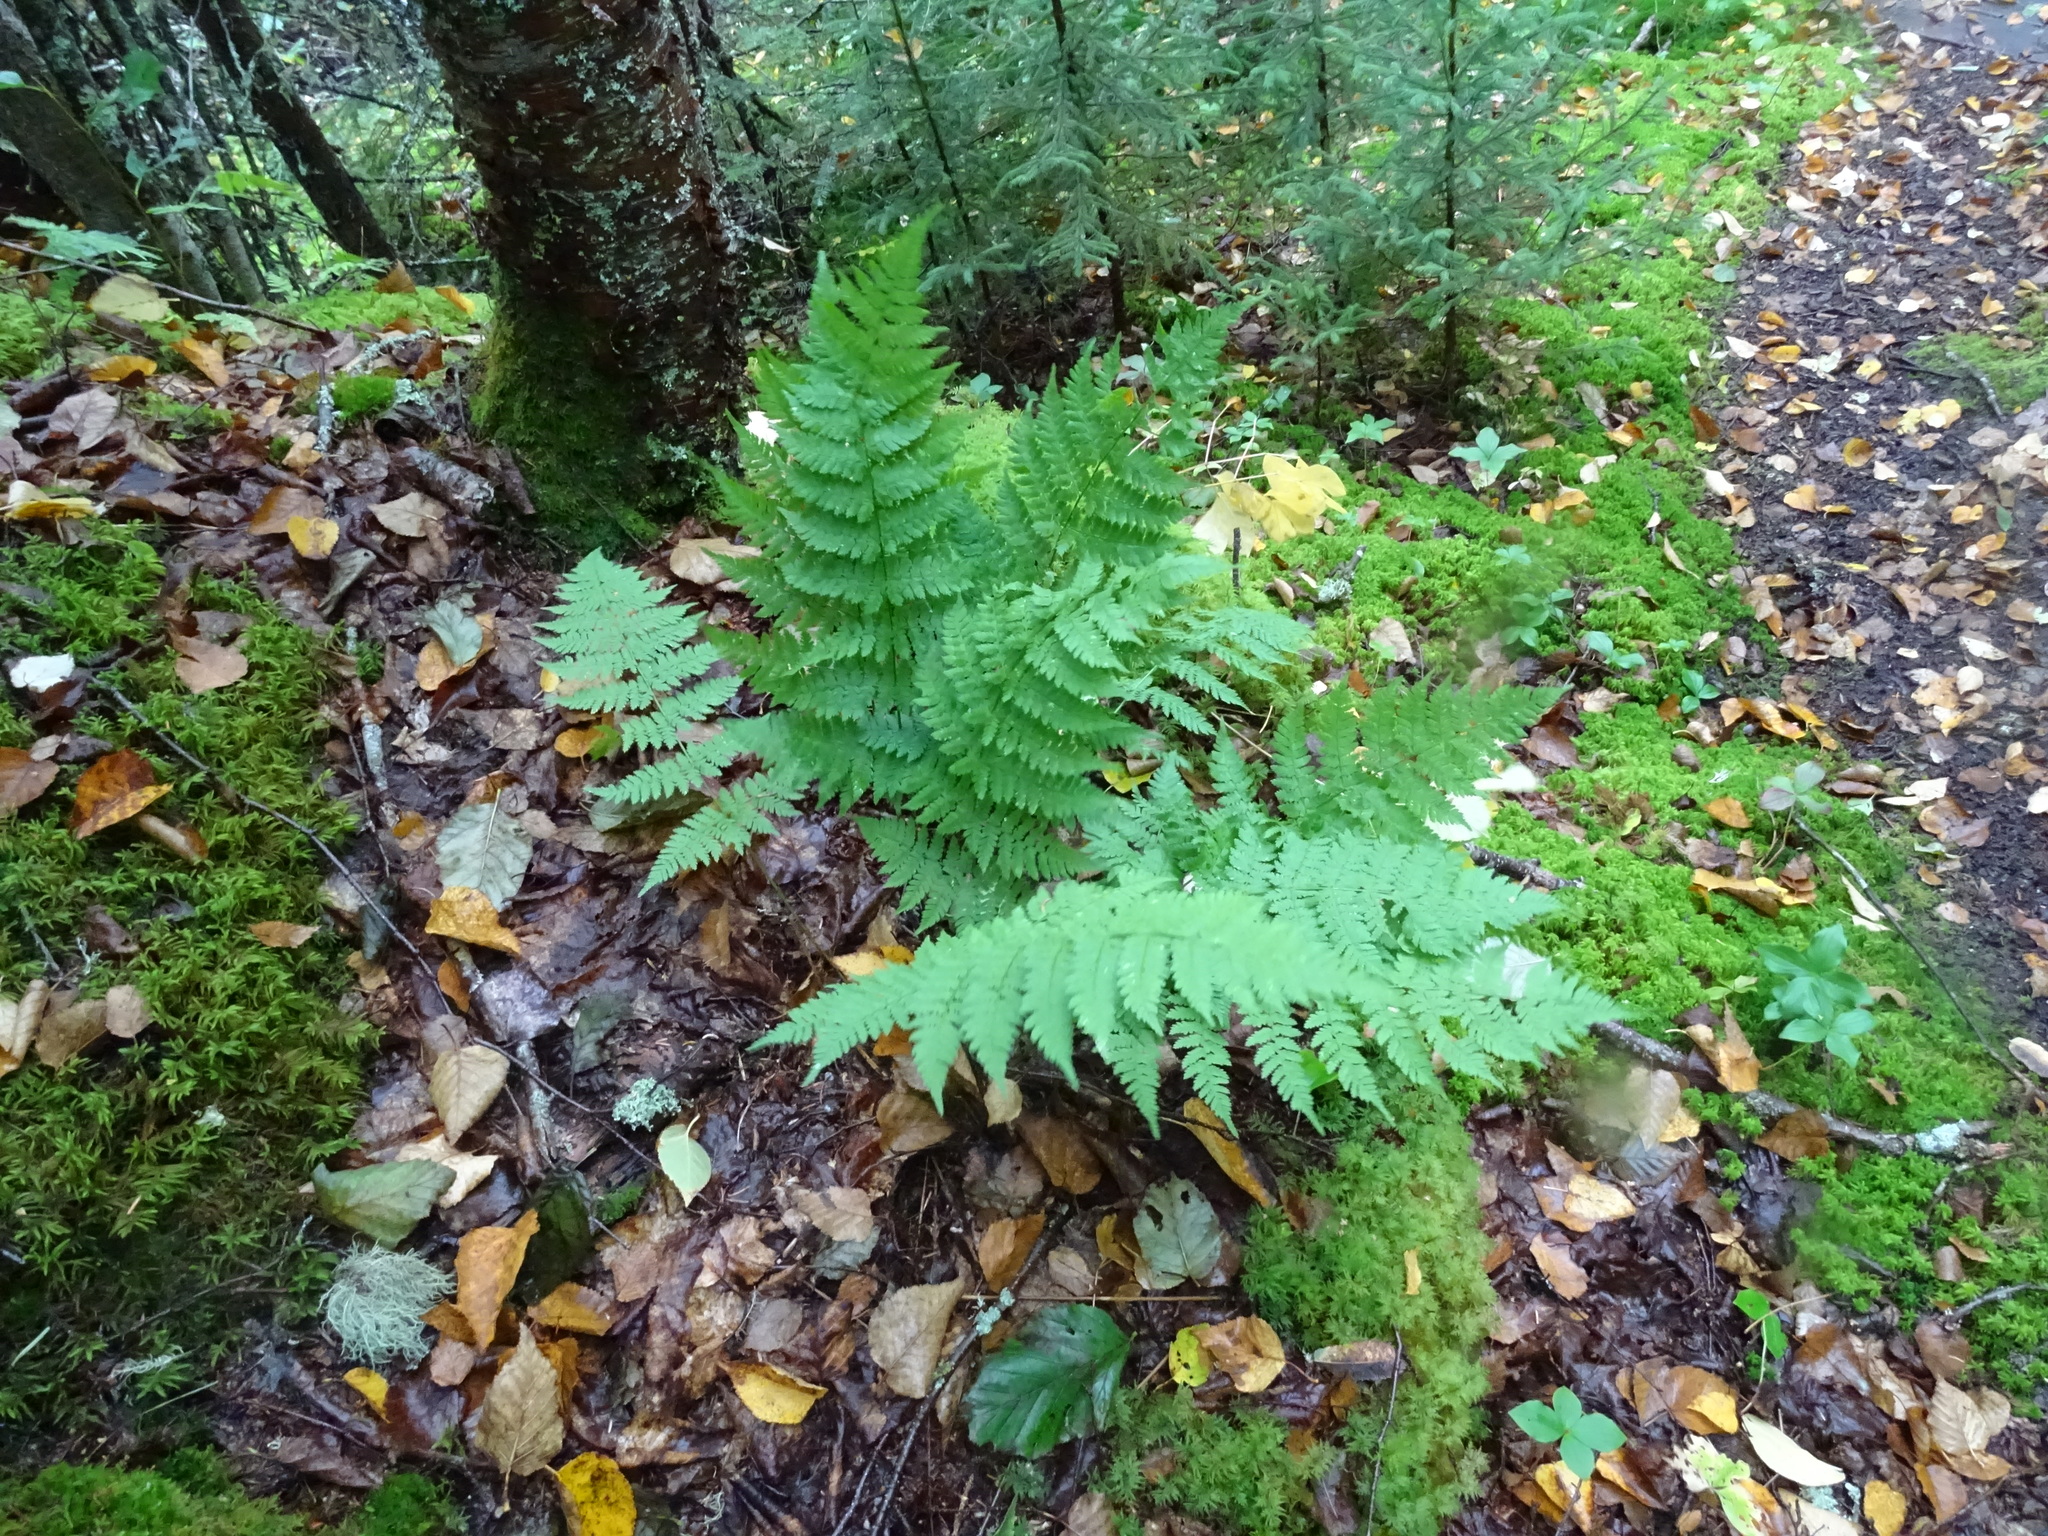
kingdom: Plantae
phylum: Tracheophyta
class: Polypodiopsida
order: Polypodiales
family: Dryopteridaceae
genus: Dryopteris
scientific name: Dryopteris intermedia
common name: Evergreen wood fern
